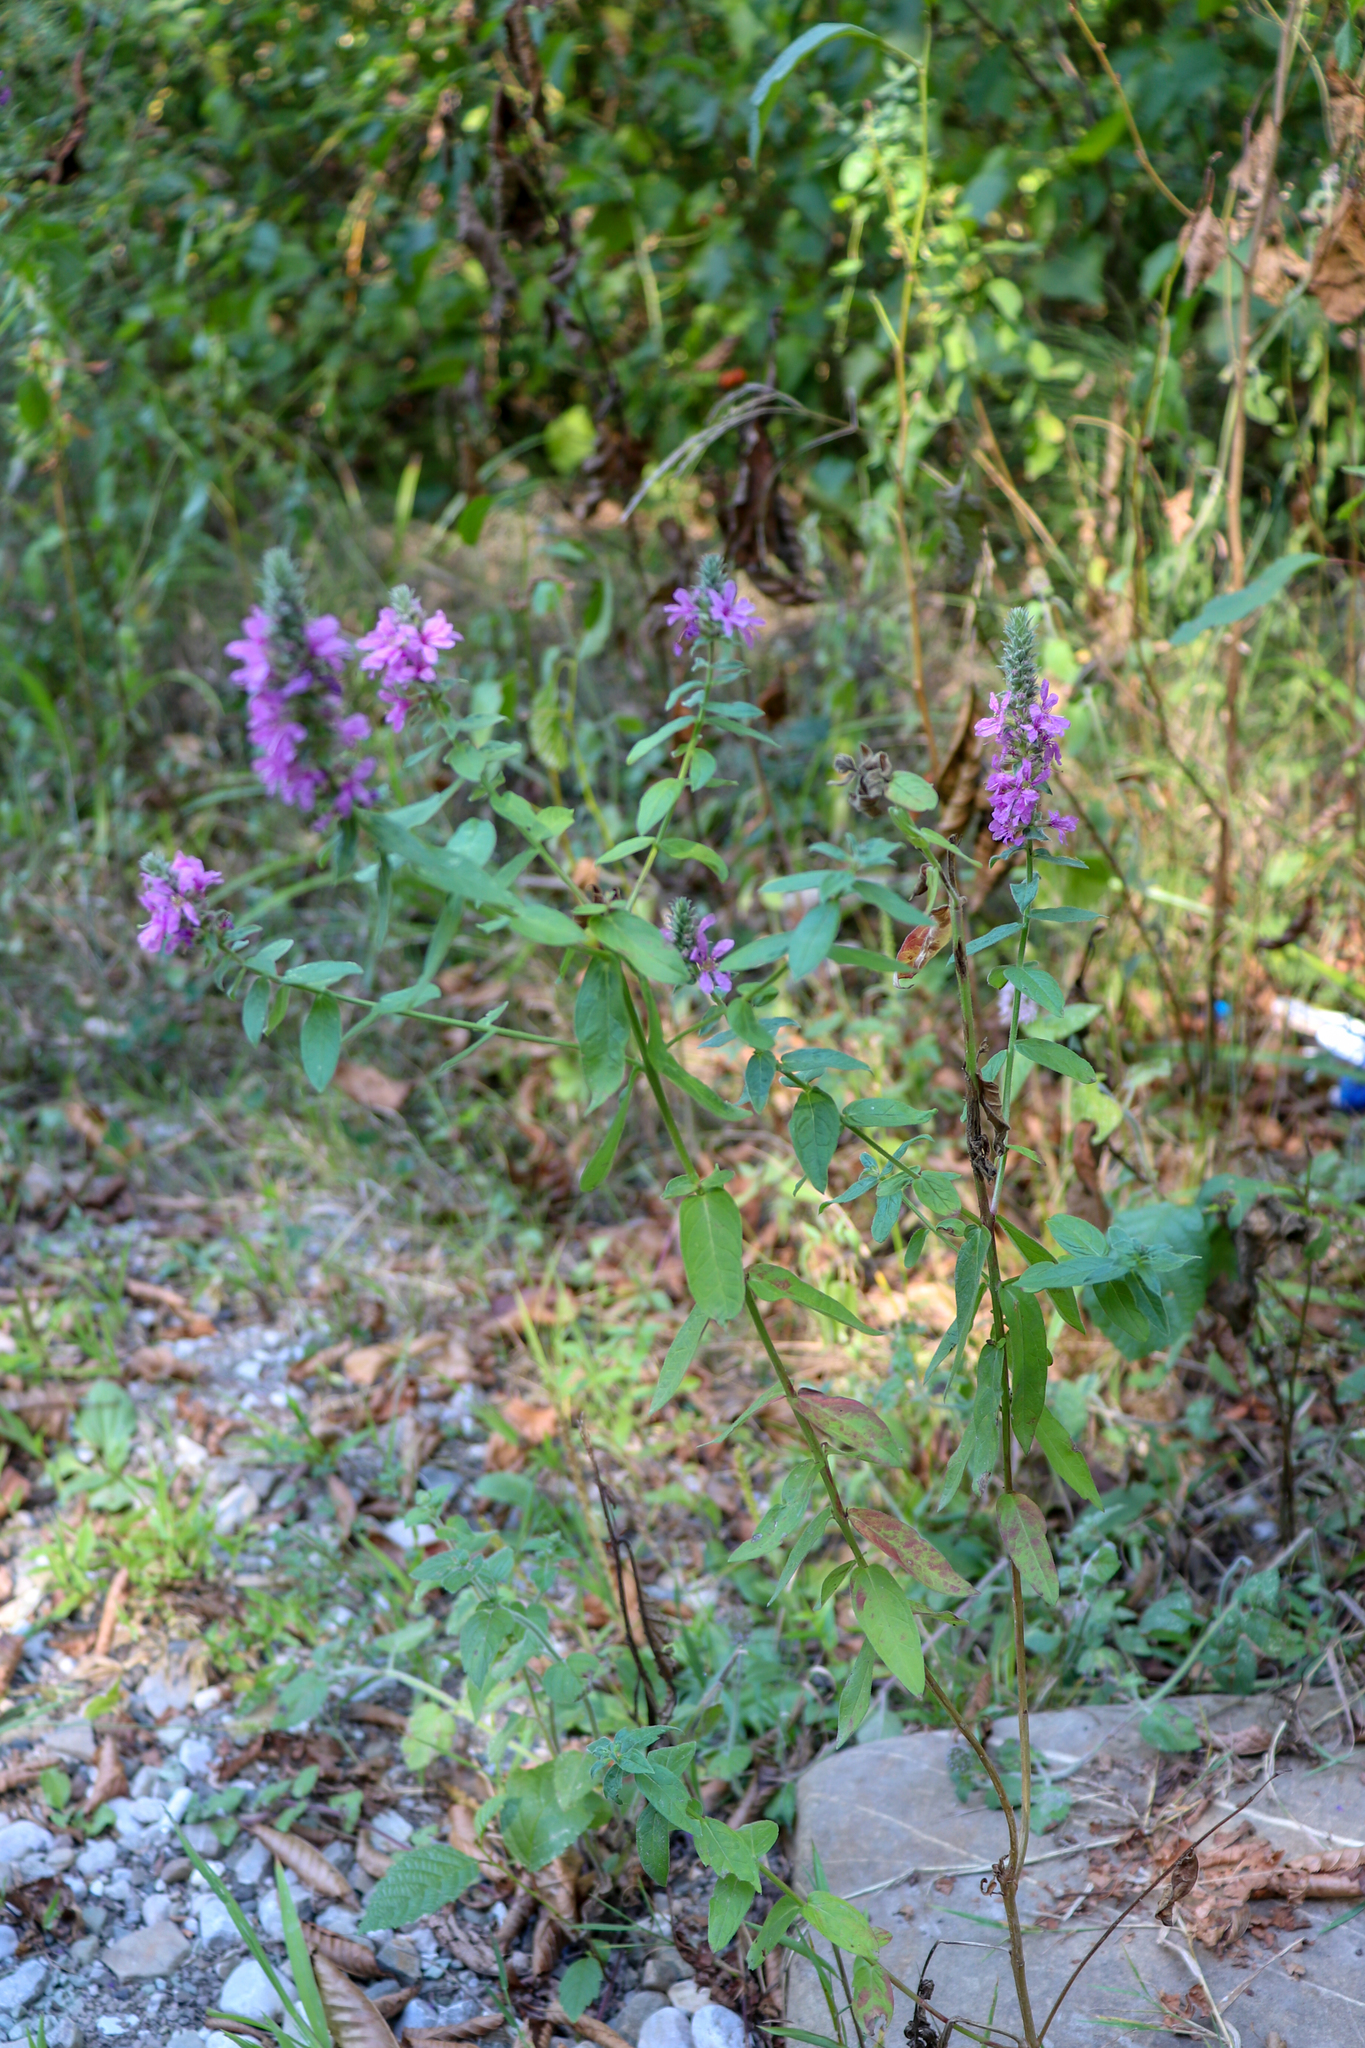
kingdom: Plantae
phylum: Tracheophyta
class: Magnoliopsida
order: Myrtales
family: Lythraceae
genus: Lythrum
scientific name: Lythrum salicaria
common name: Purple loosestrife
